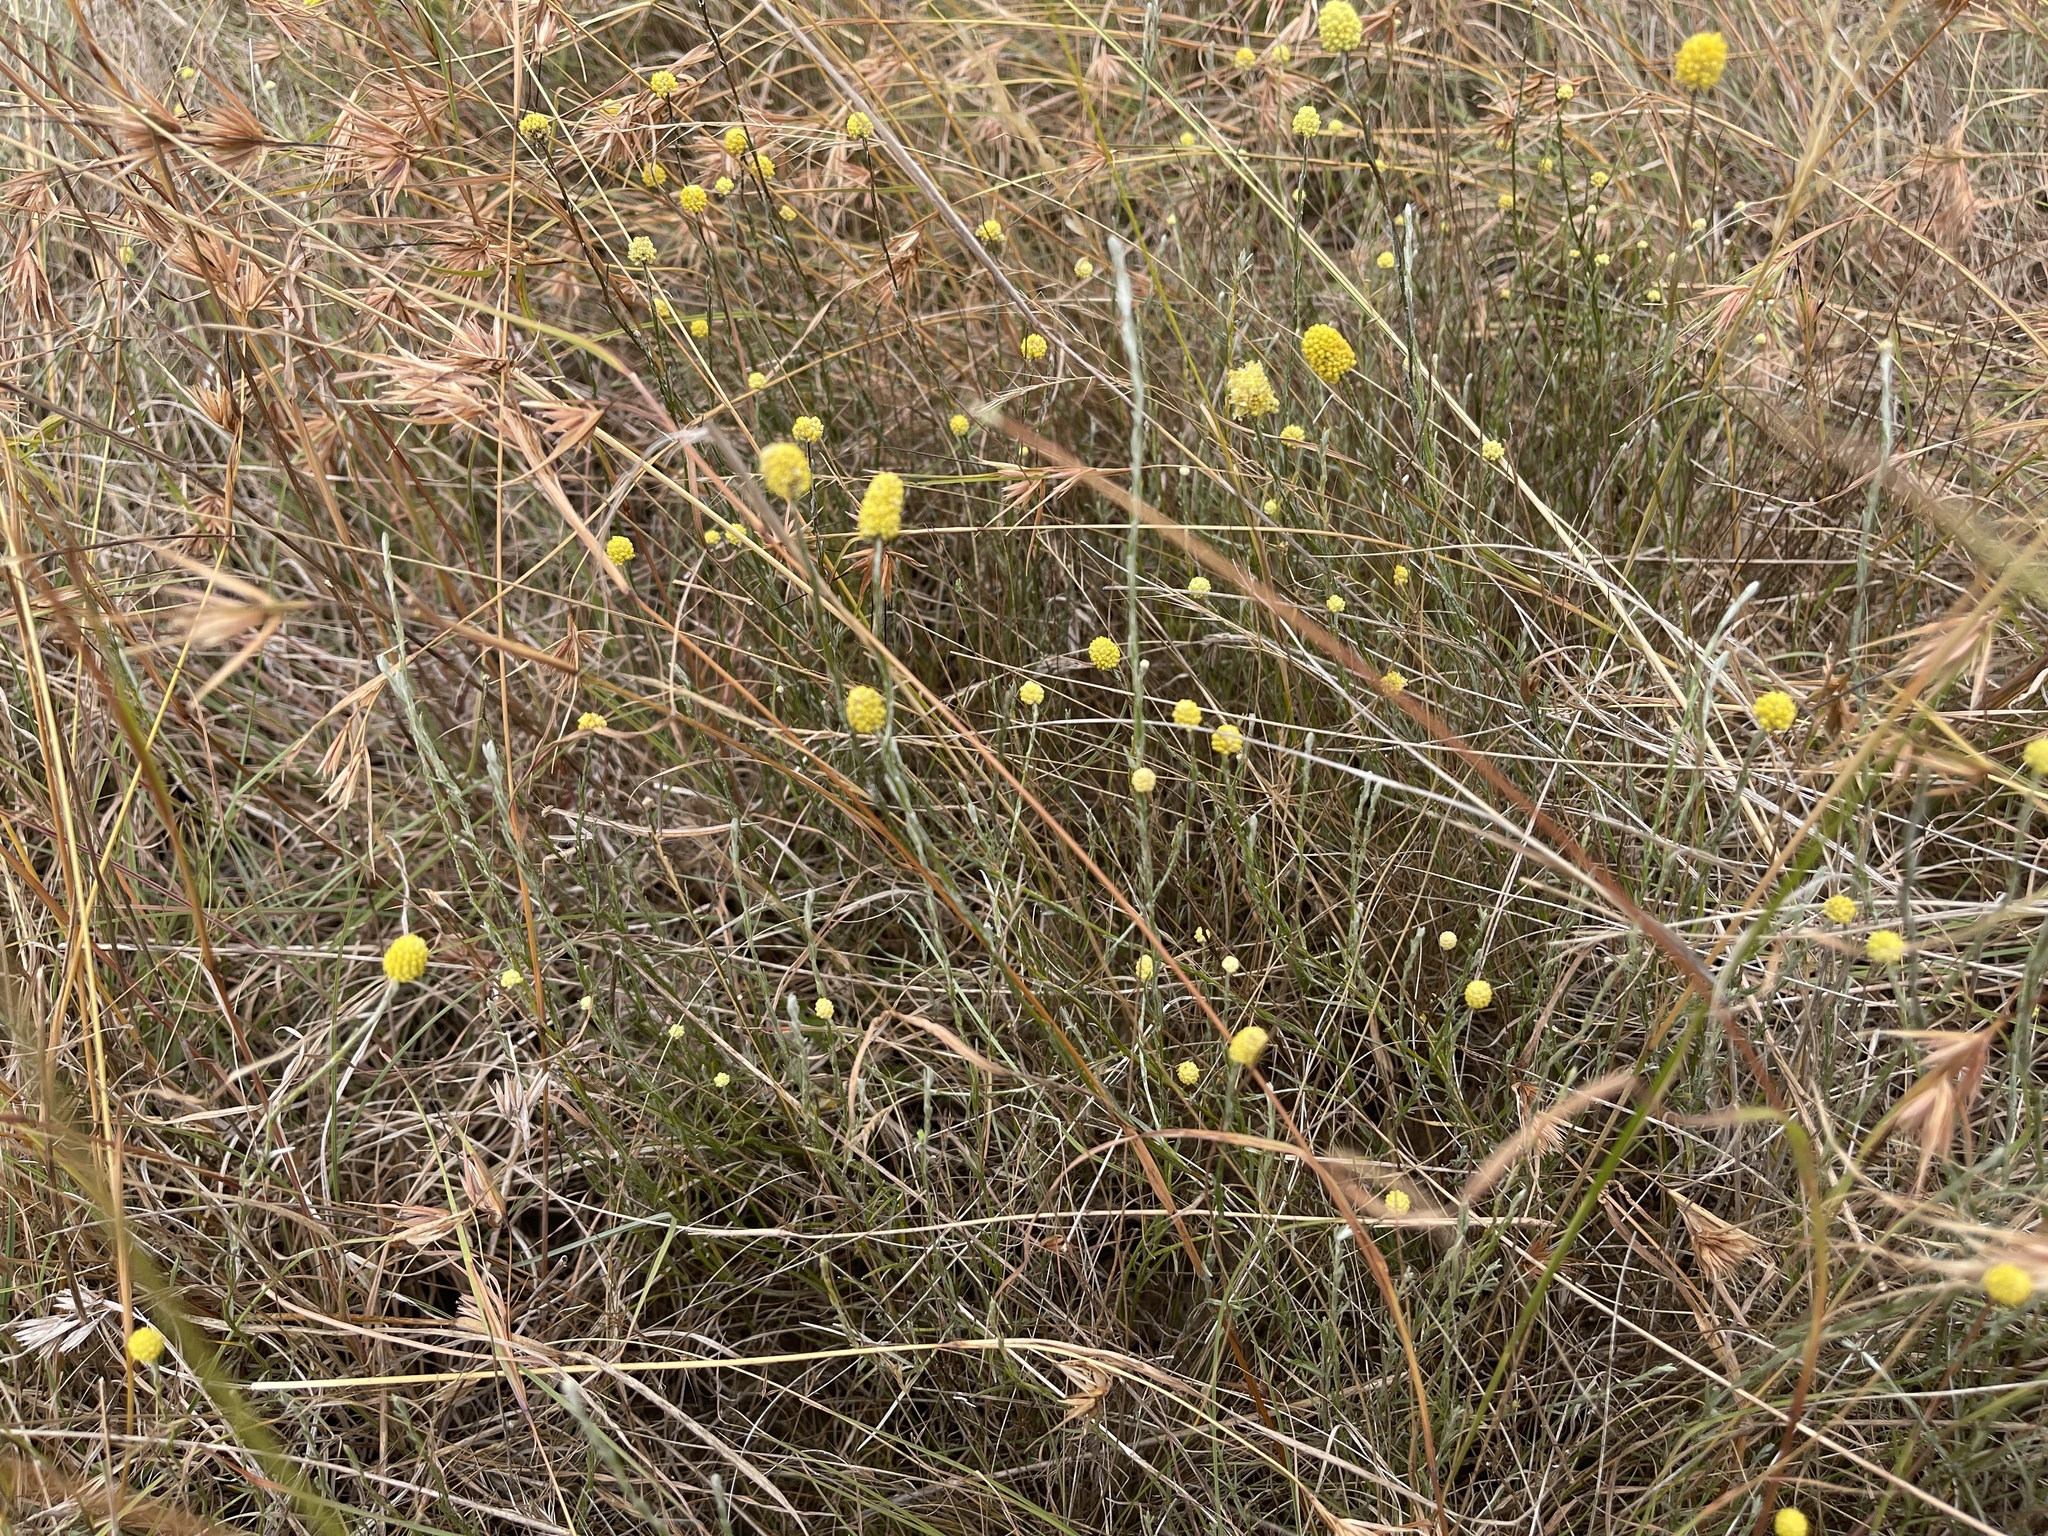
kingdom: Plantae
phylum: Tracheophyta
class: Magnoliopsida
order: Asterales
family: Asteraceae
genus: Calocephalus
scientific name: Calocephalus citreus
